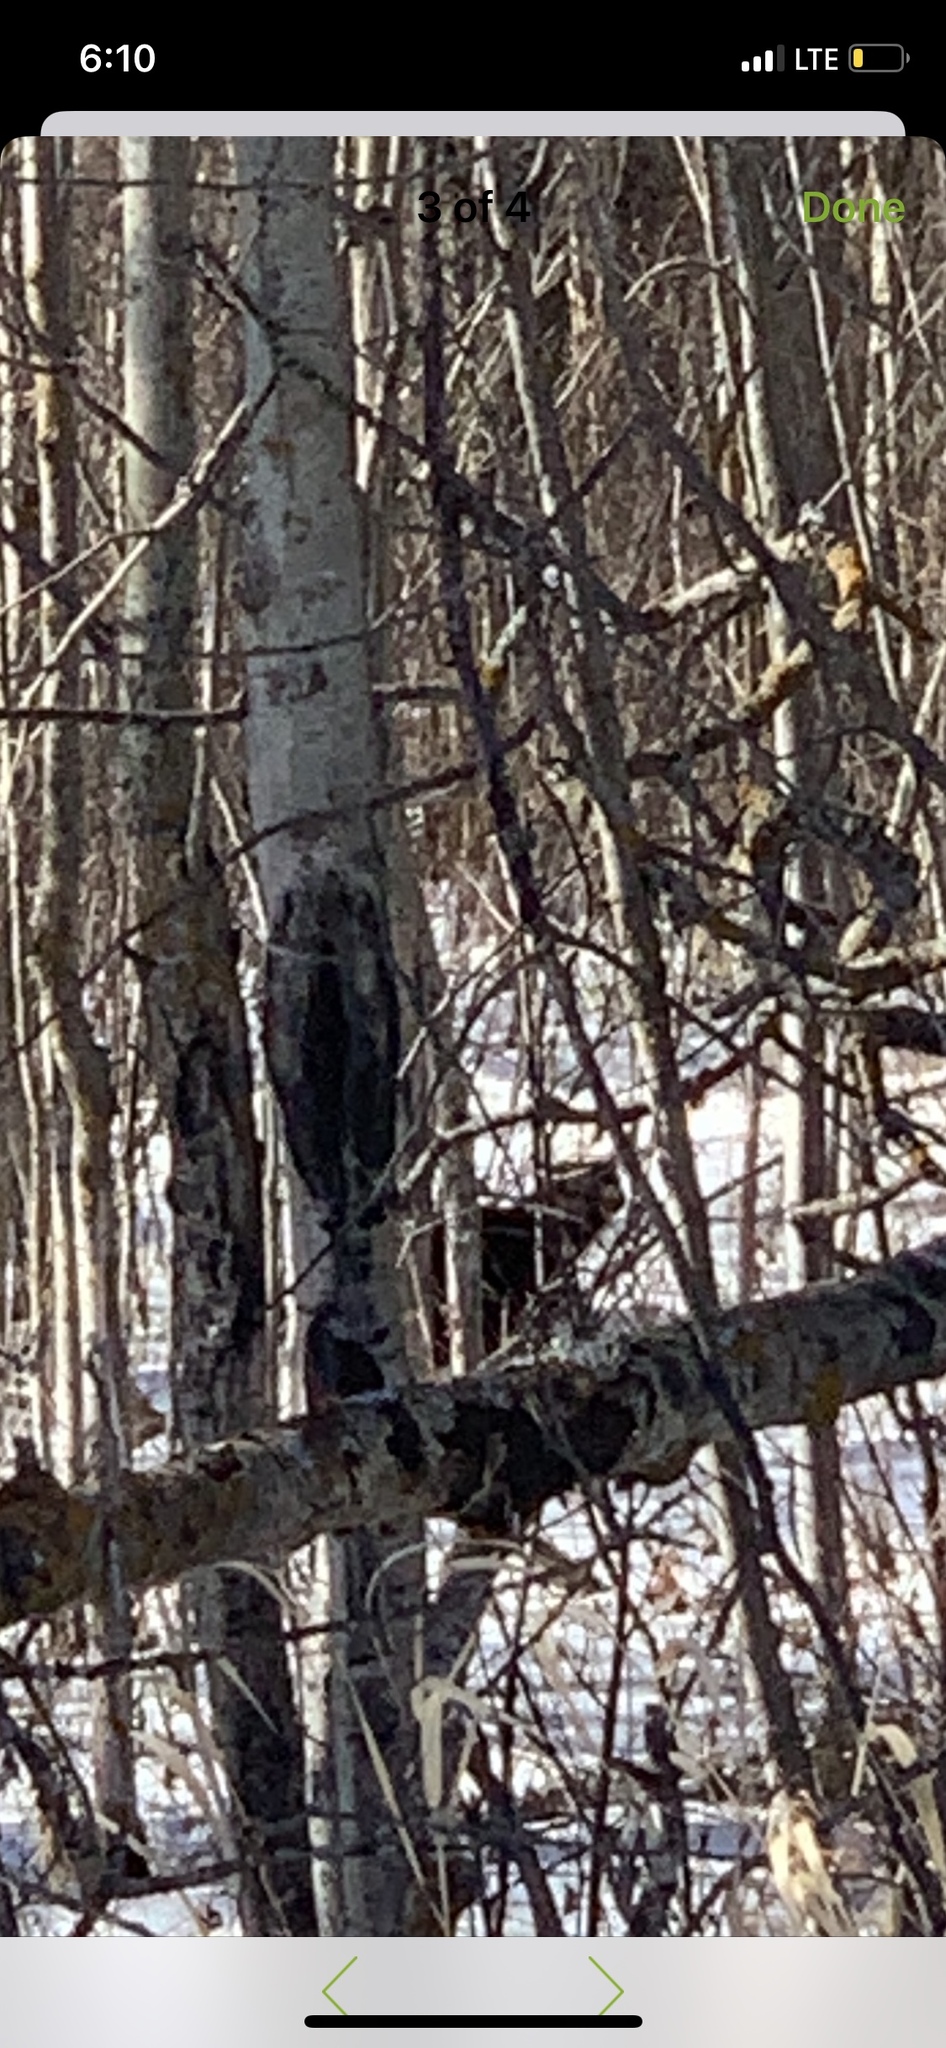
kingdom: Animalia
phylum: Chordata
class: Mammalia
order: Carnivora
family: Mustelidae
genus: Pekania
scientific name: Pekania pennanti
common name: Fisher
